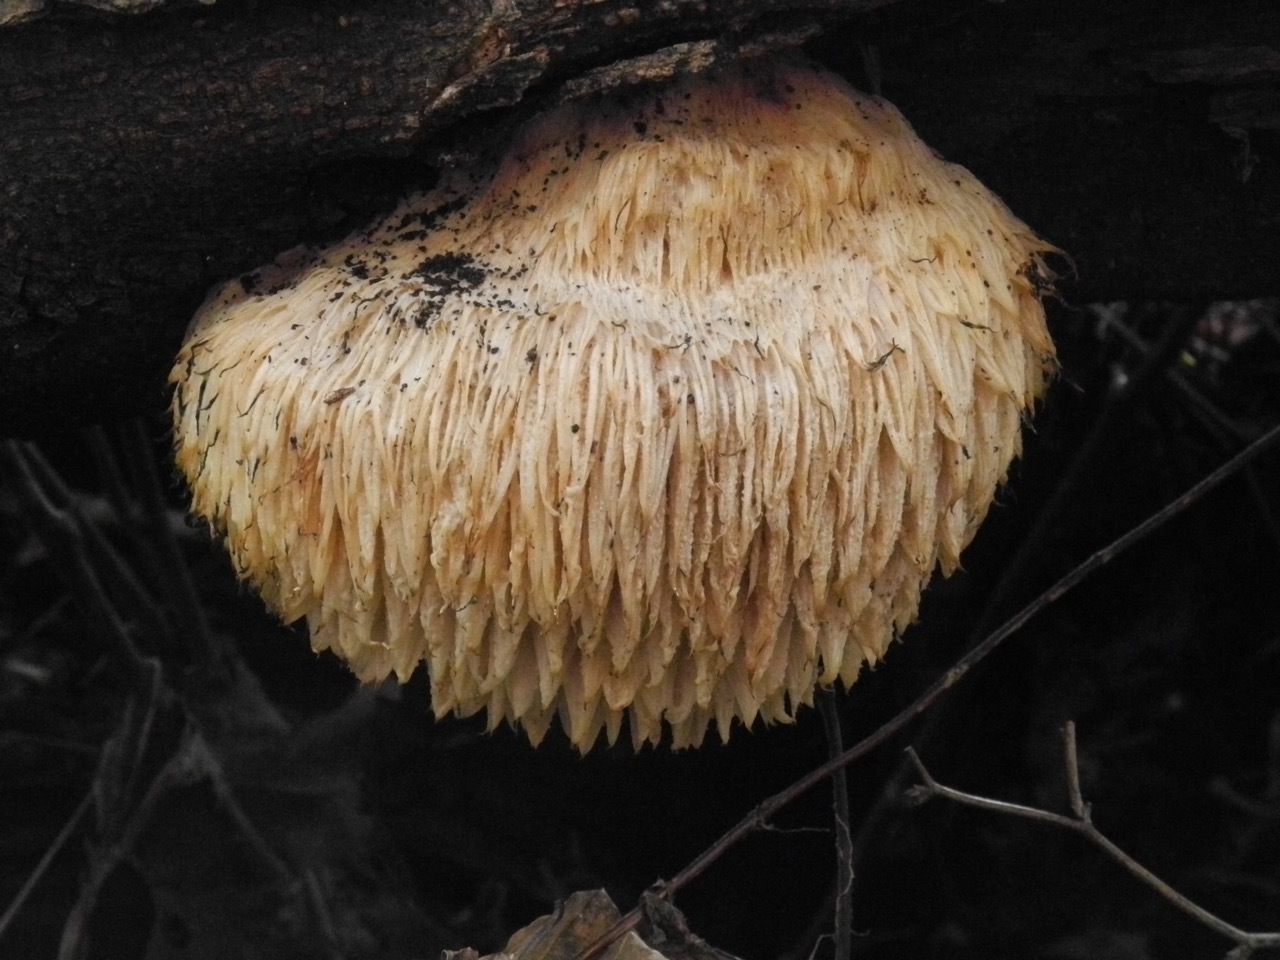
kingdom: Fungi
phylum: Basidiomycota
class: Agaricomycetes
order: Russulales
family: Hericiaceae
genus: Hericium
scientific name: Hericium erinaceus
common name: Bearded tooth
